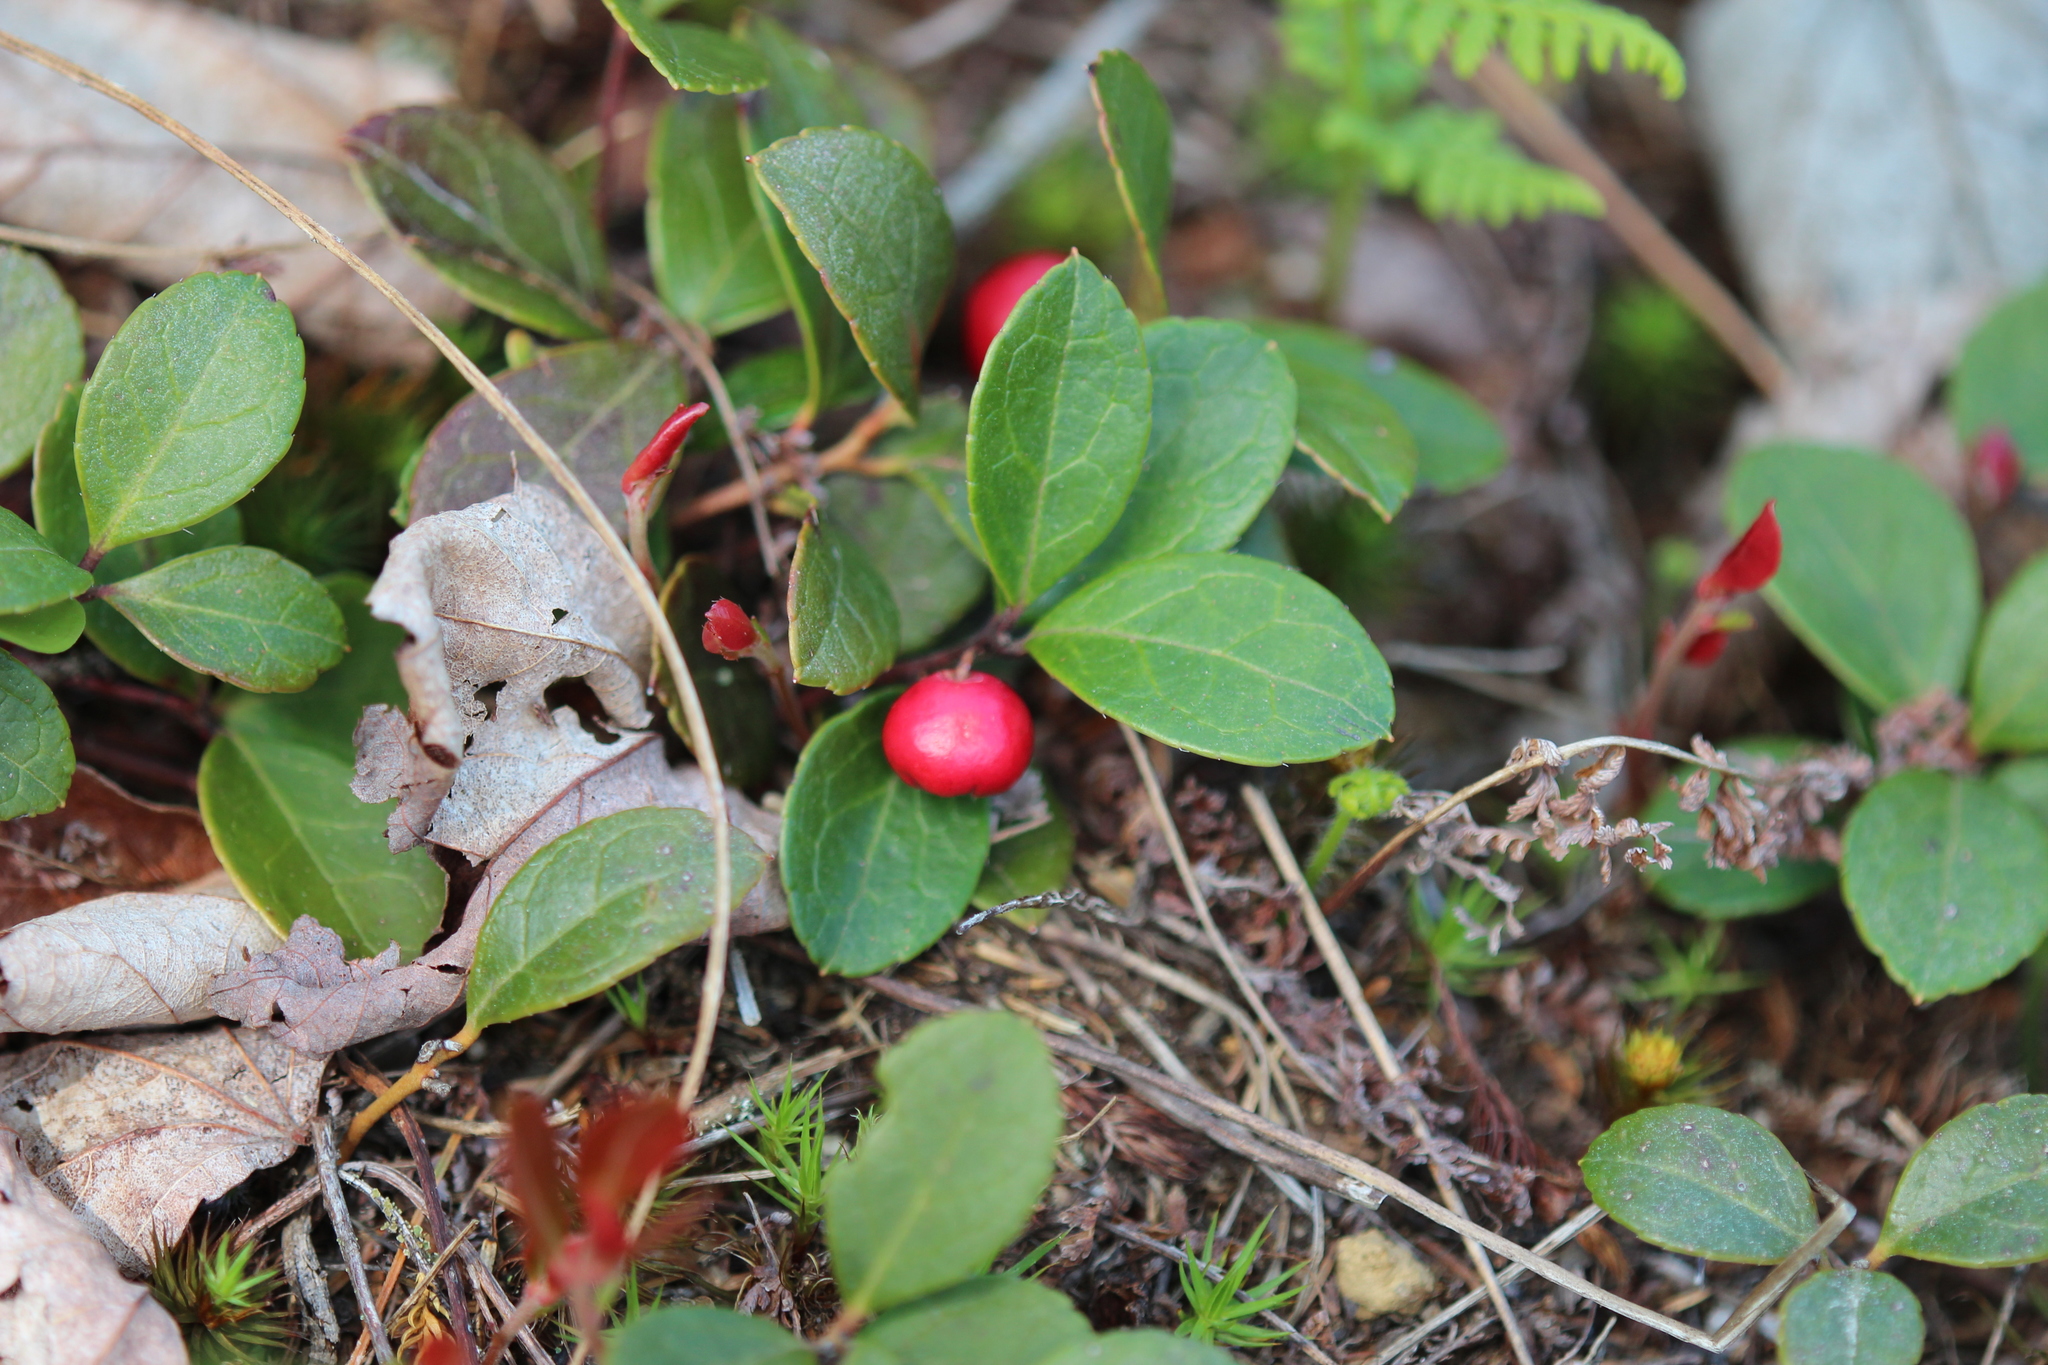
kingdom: Plantae
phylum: Tracheophyta
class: Magnoliopsida
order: Ericales
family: Ericaceae
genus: Gaultheria
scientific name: Gaultheria procumbens
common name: Checkerberry
